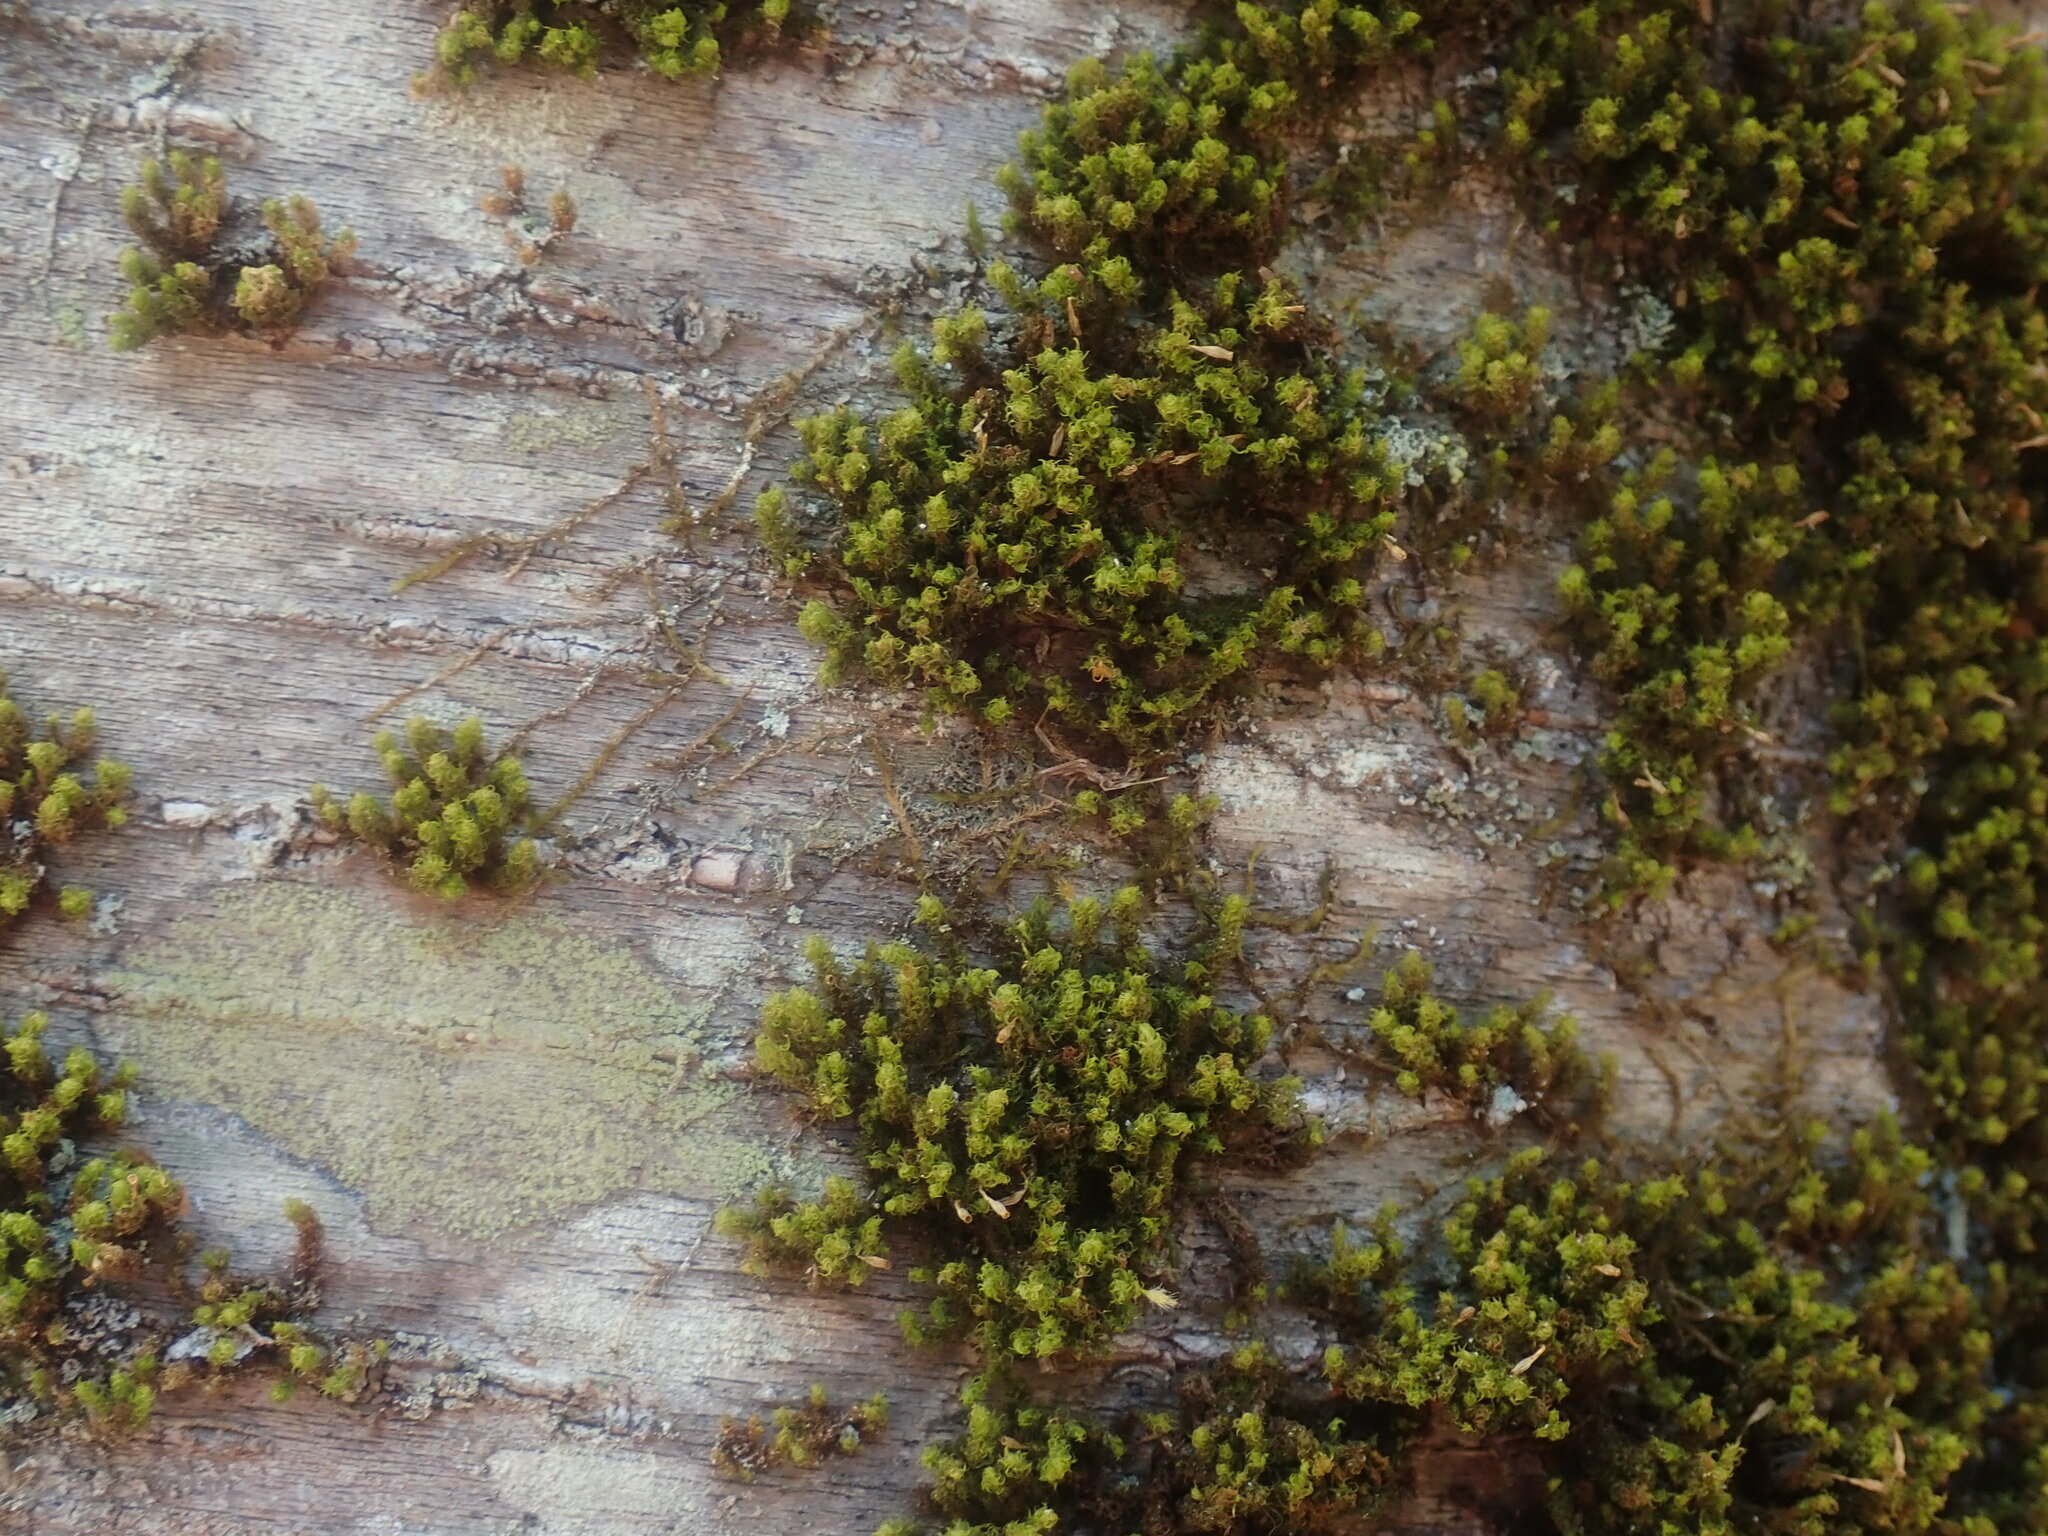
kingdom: Plantae
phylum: Bryophyta
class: Bryopsida
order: Orthotrichales
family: Orthotrichaceae
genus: Ulota
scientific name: Ulota crispa
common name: Crisped pincushion moss
